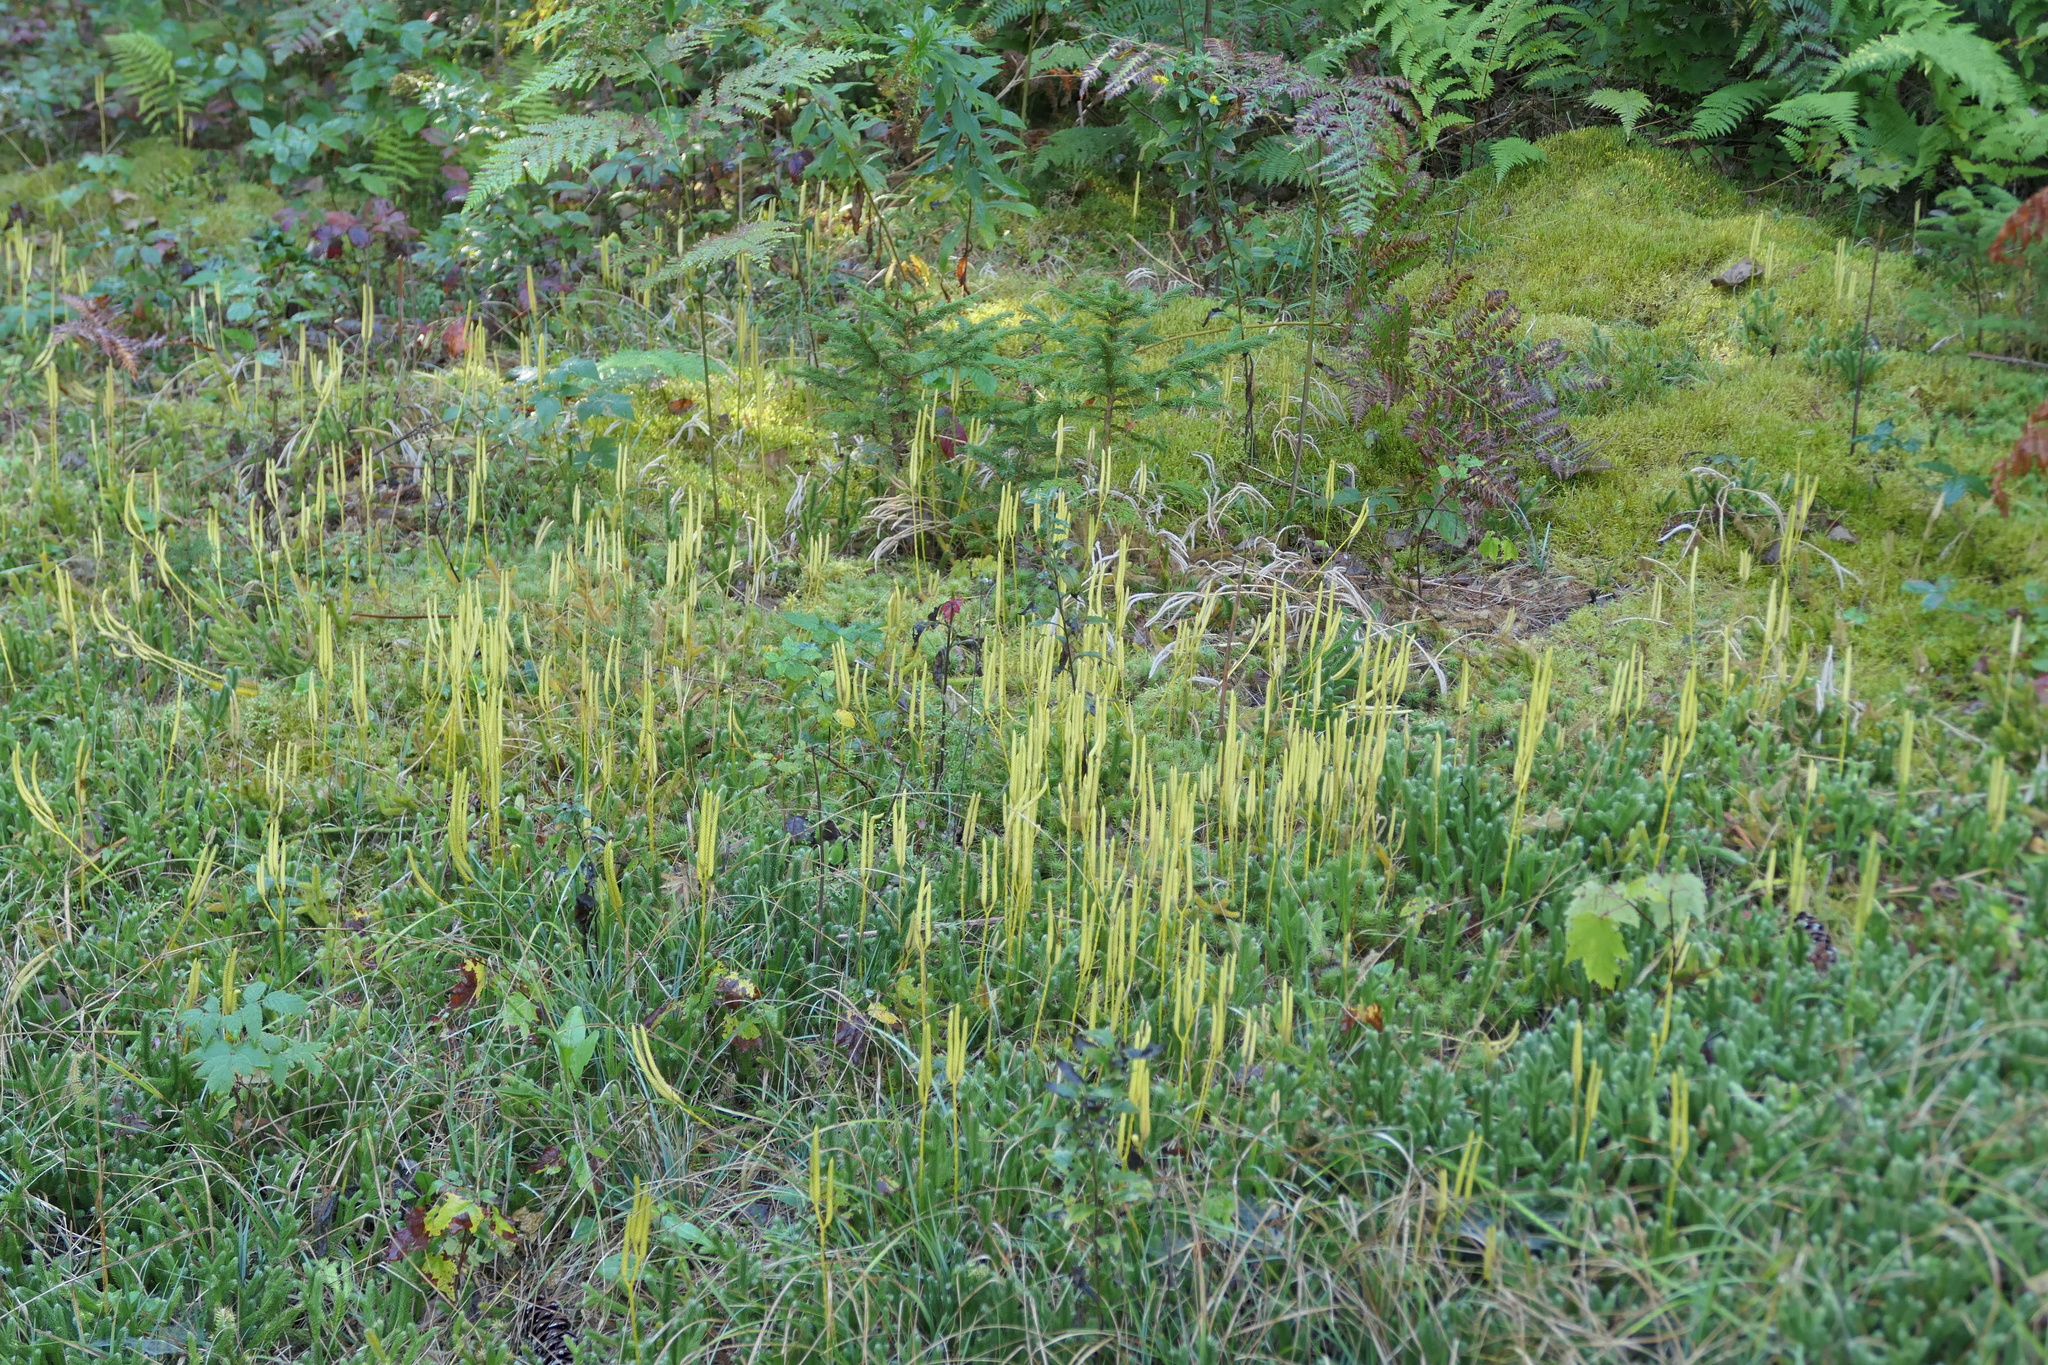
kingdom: Plantae
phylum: Tracheophyta
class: Lycopodiopsida
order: Lycopodiales
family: Lycopodiaceae
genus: Lycopodium
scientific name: Lycopodium clavatum
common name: Stag's-horn clubmoss
